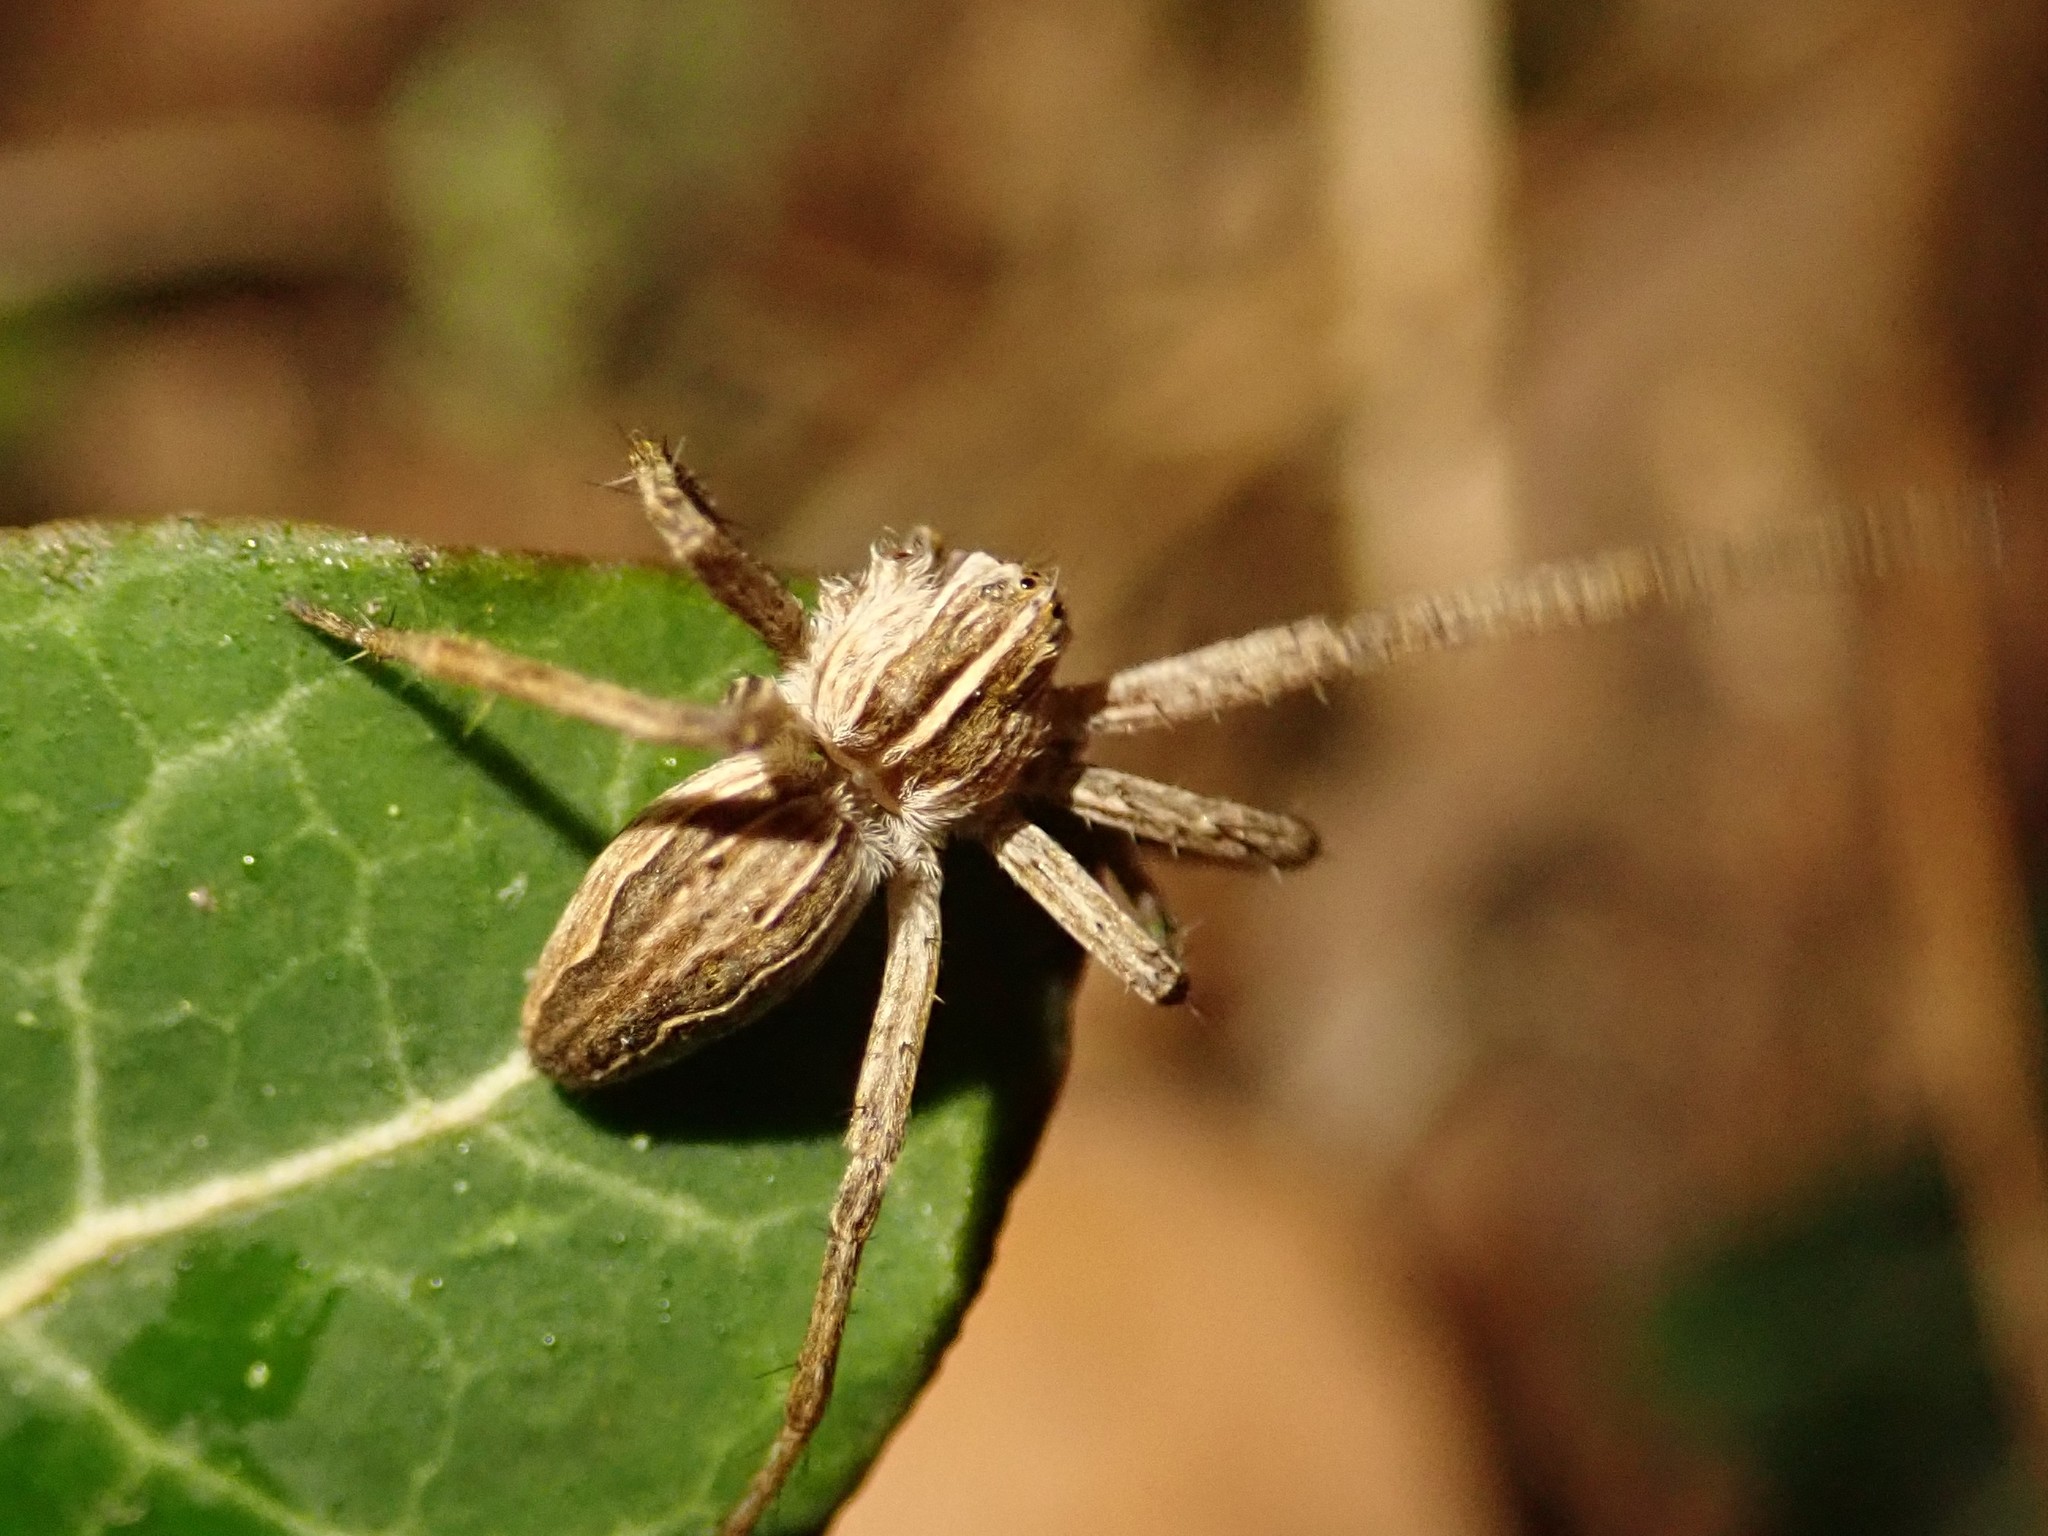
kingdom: Animalia
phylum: Arthropoda
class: Arachnida
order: Araneae
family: Pisauridae
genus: Pisaura
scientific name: Pisaura mirabilis
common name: Tent spider
